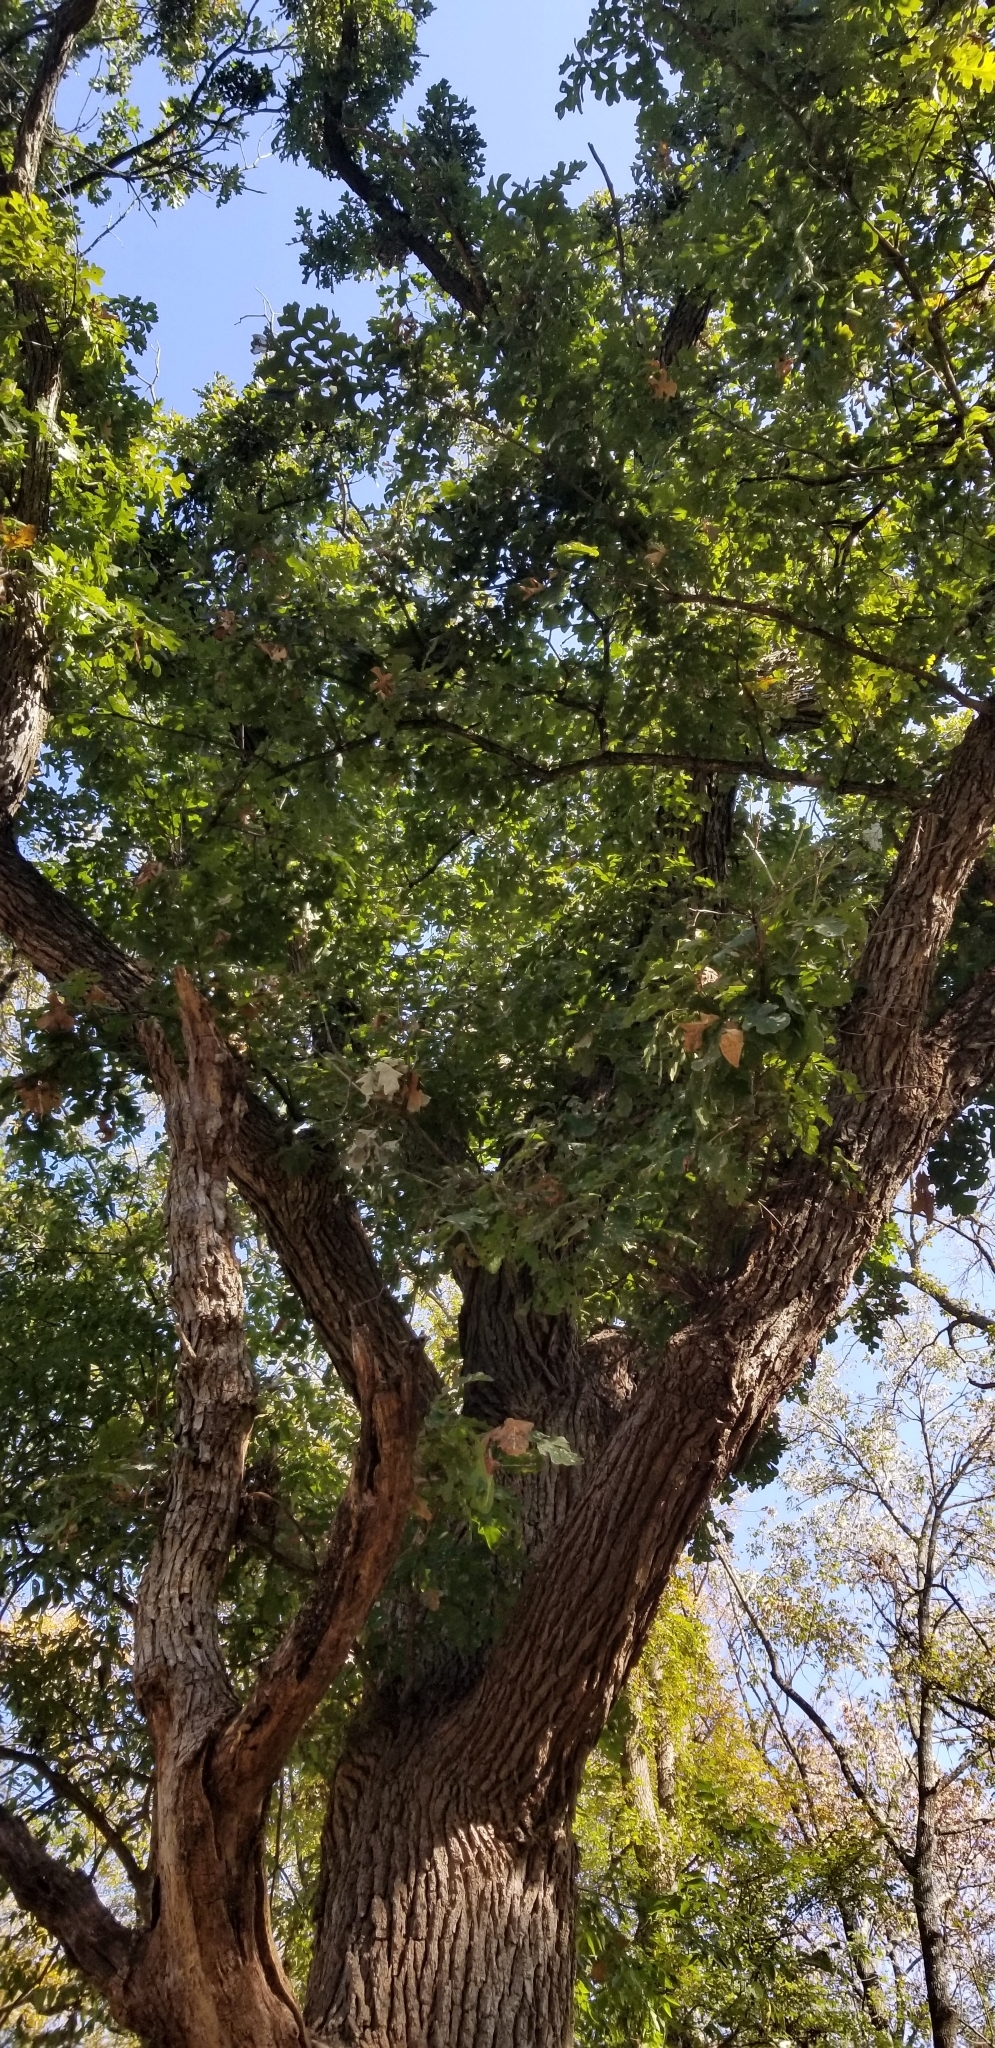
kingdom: Plantae
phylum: Tracheophyta
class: Magnoliopsida
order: Fagales
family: Fagaceae
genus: Quercus
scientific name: Quercus macrocarpa
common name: Bur oak
